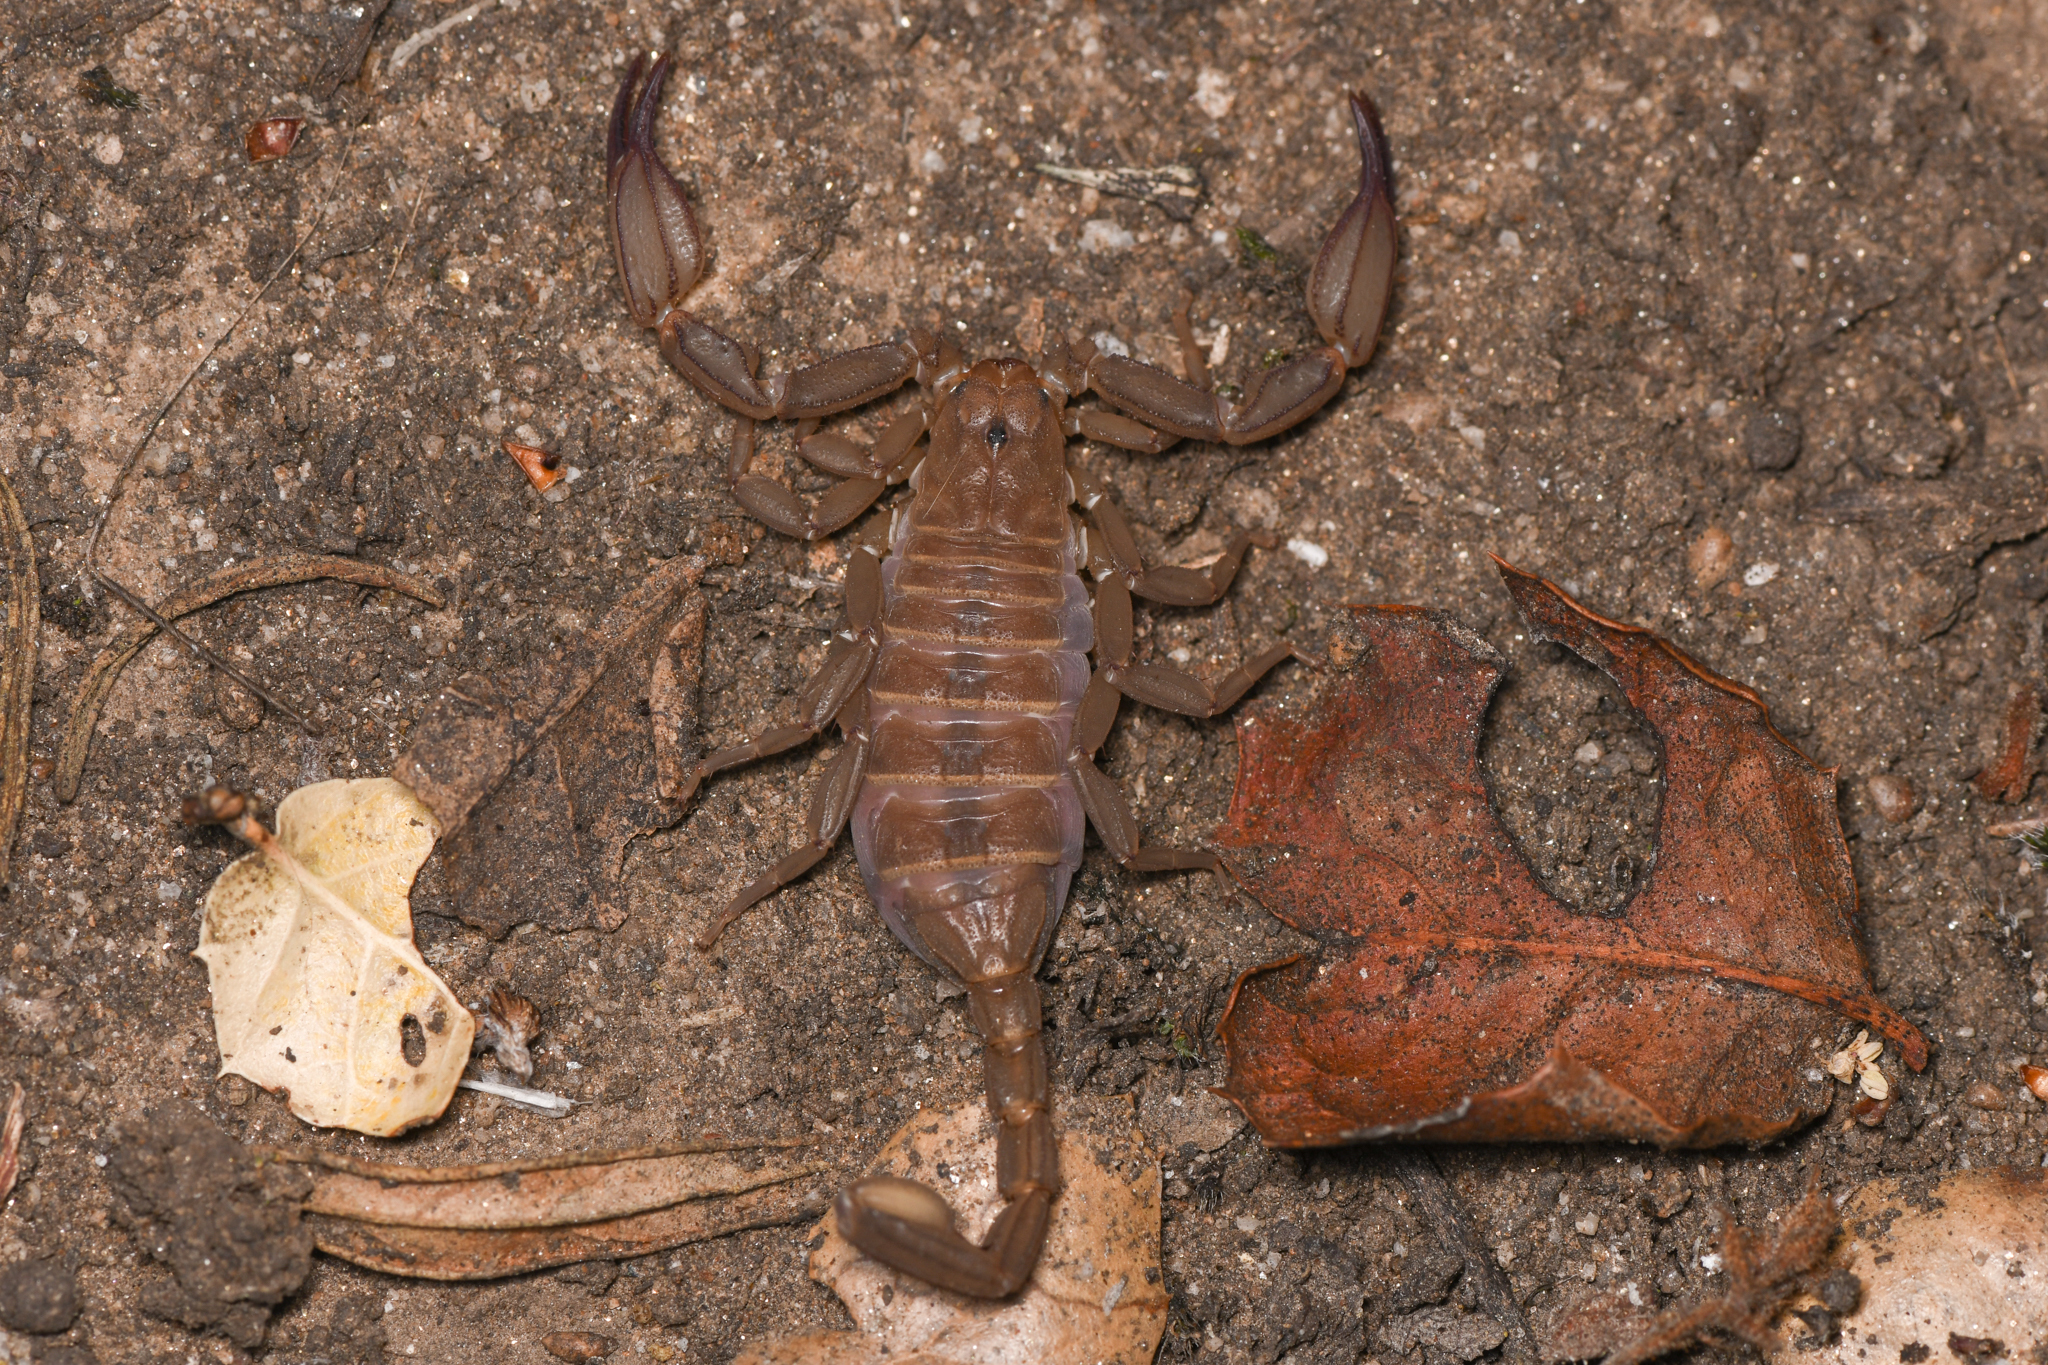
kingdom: Animalia
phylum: Arthropoda
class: Arachnida
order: Scorpiones
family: Vaejovidae
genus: Kovarikia
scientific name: Kovarikia williamsi
